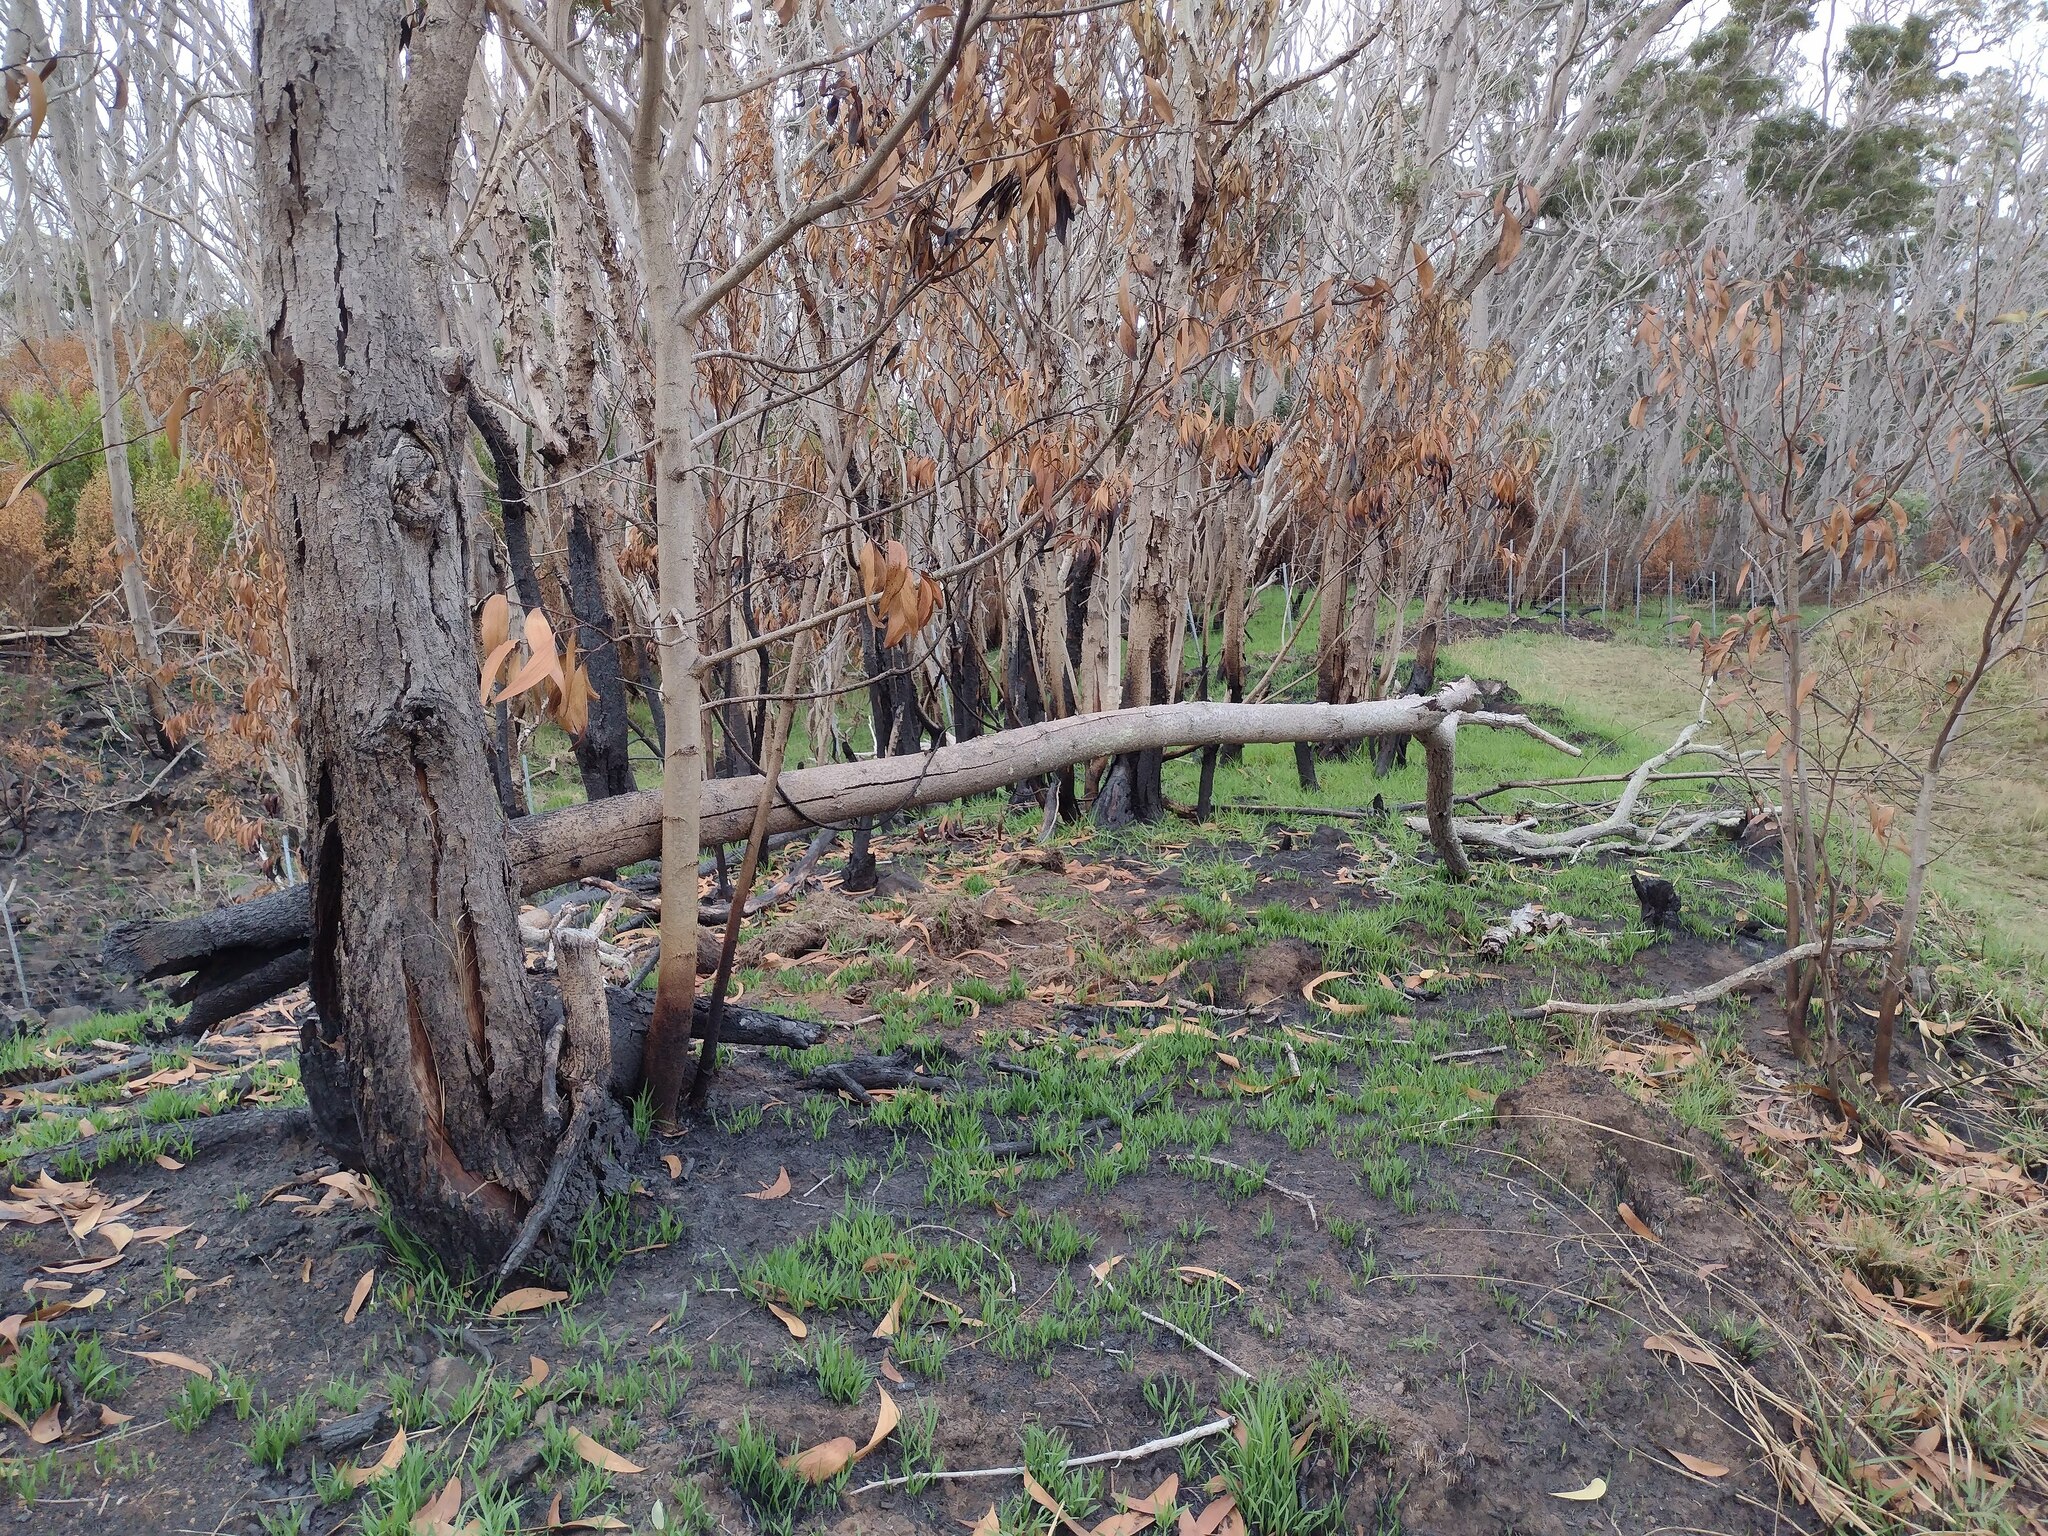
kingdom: Plantae
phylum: Tracheophyta
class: Magnoliopsida
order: Fabales
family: Fabaceae
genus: Acacia
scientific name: Acacia koa
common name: Gray koa
